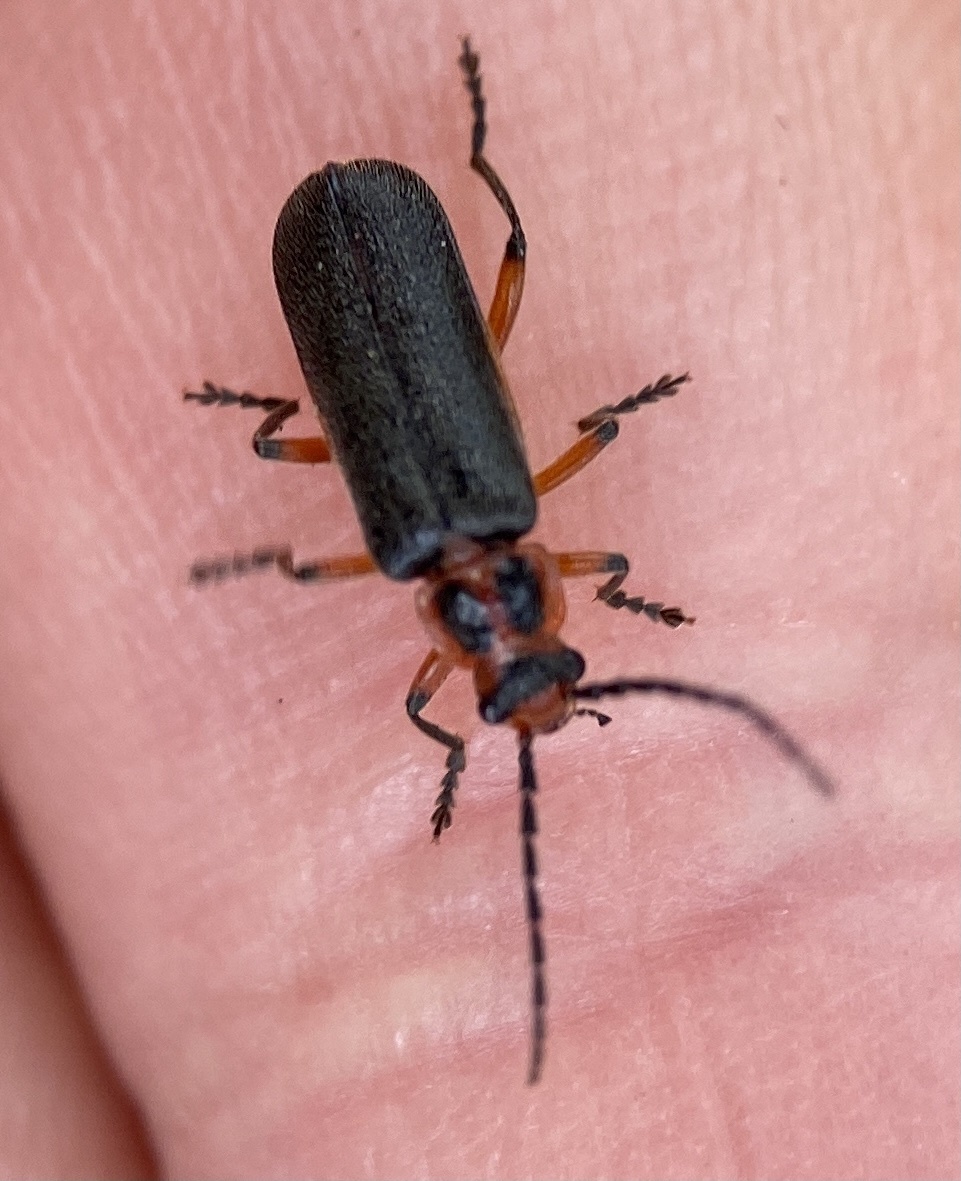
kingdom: Animalia
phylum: Arthropoda
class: Insecta
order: Coleoptera
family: Cantharidae
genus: Atalantycha
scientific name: Atalantycha bilineata
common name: Two-lined leatherwing
